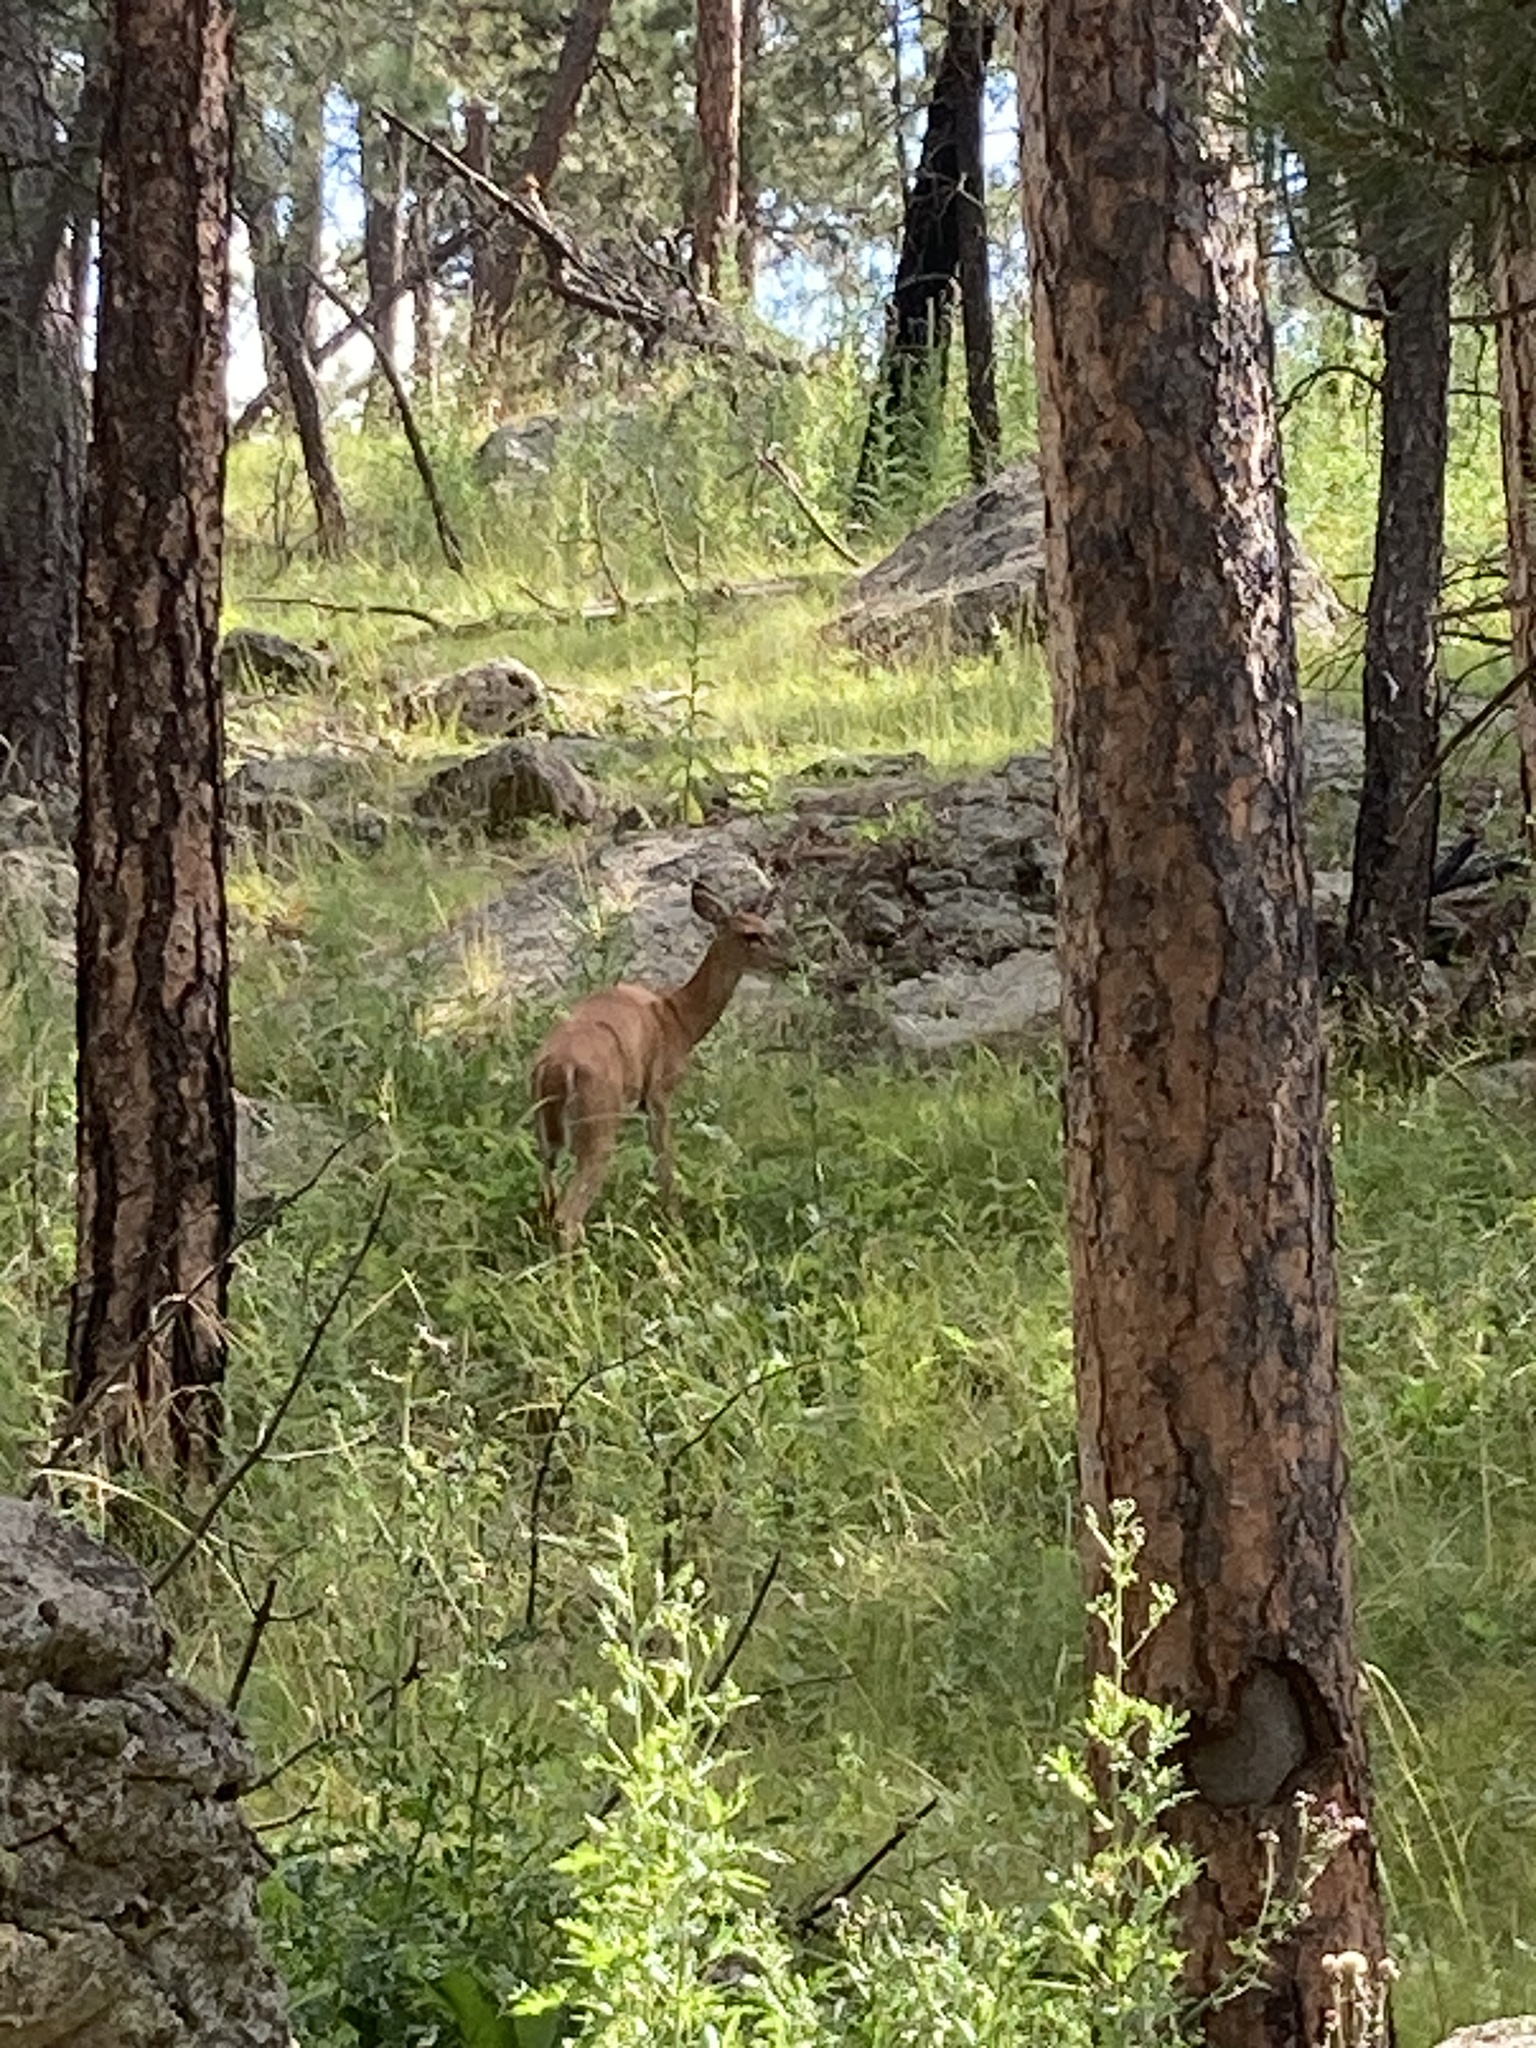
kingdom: Animalia
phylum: Chordata
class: Mammalia
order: Artiodactyla
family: Cervidae
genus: Odocoileus
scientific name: Odocoileus virginianus
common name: White-tailed deer
